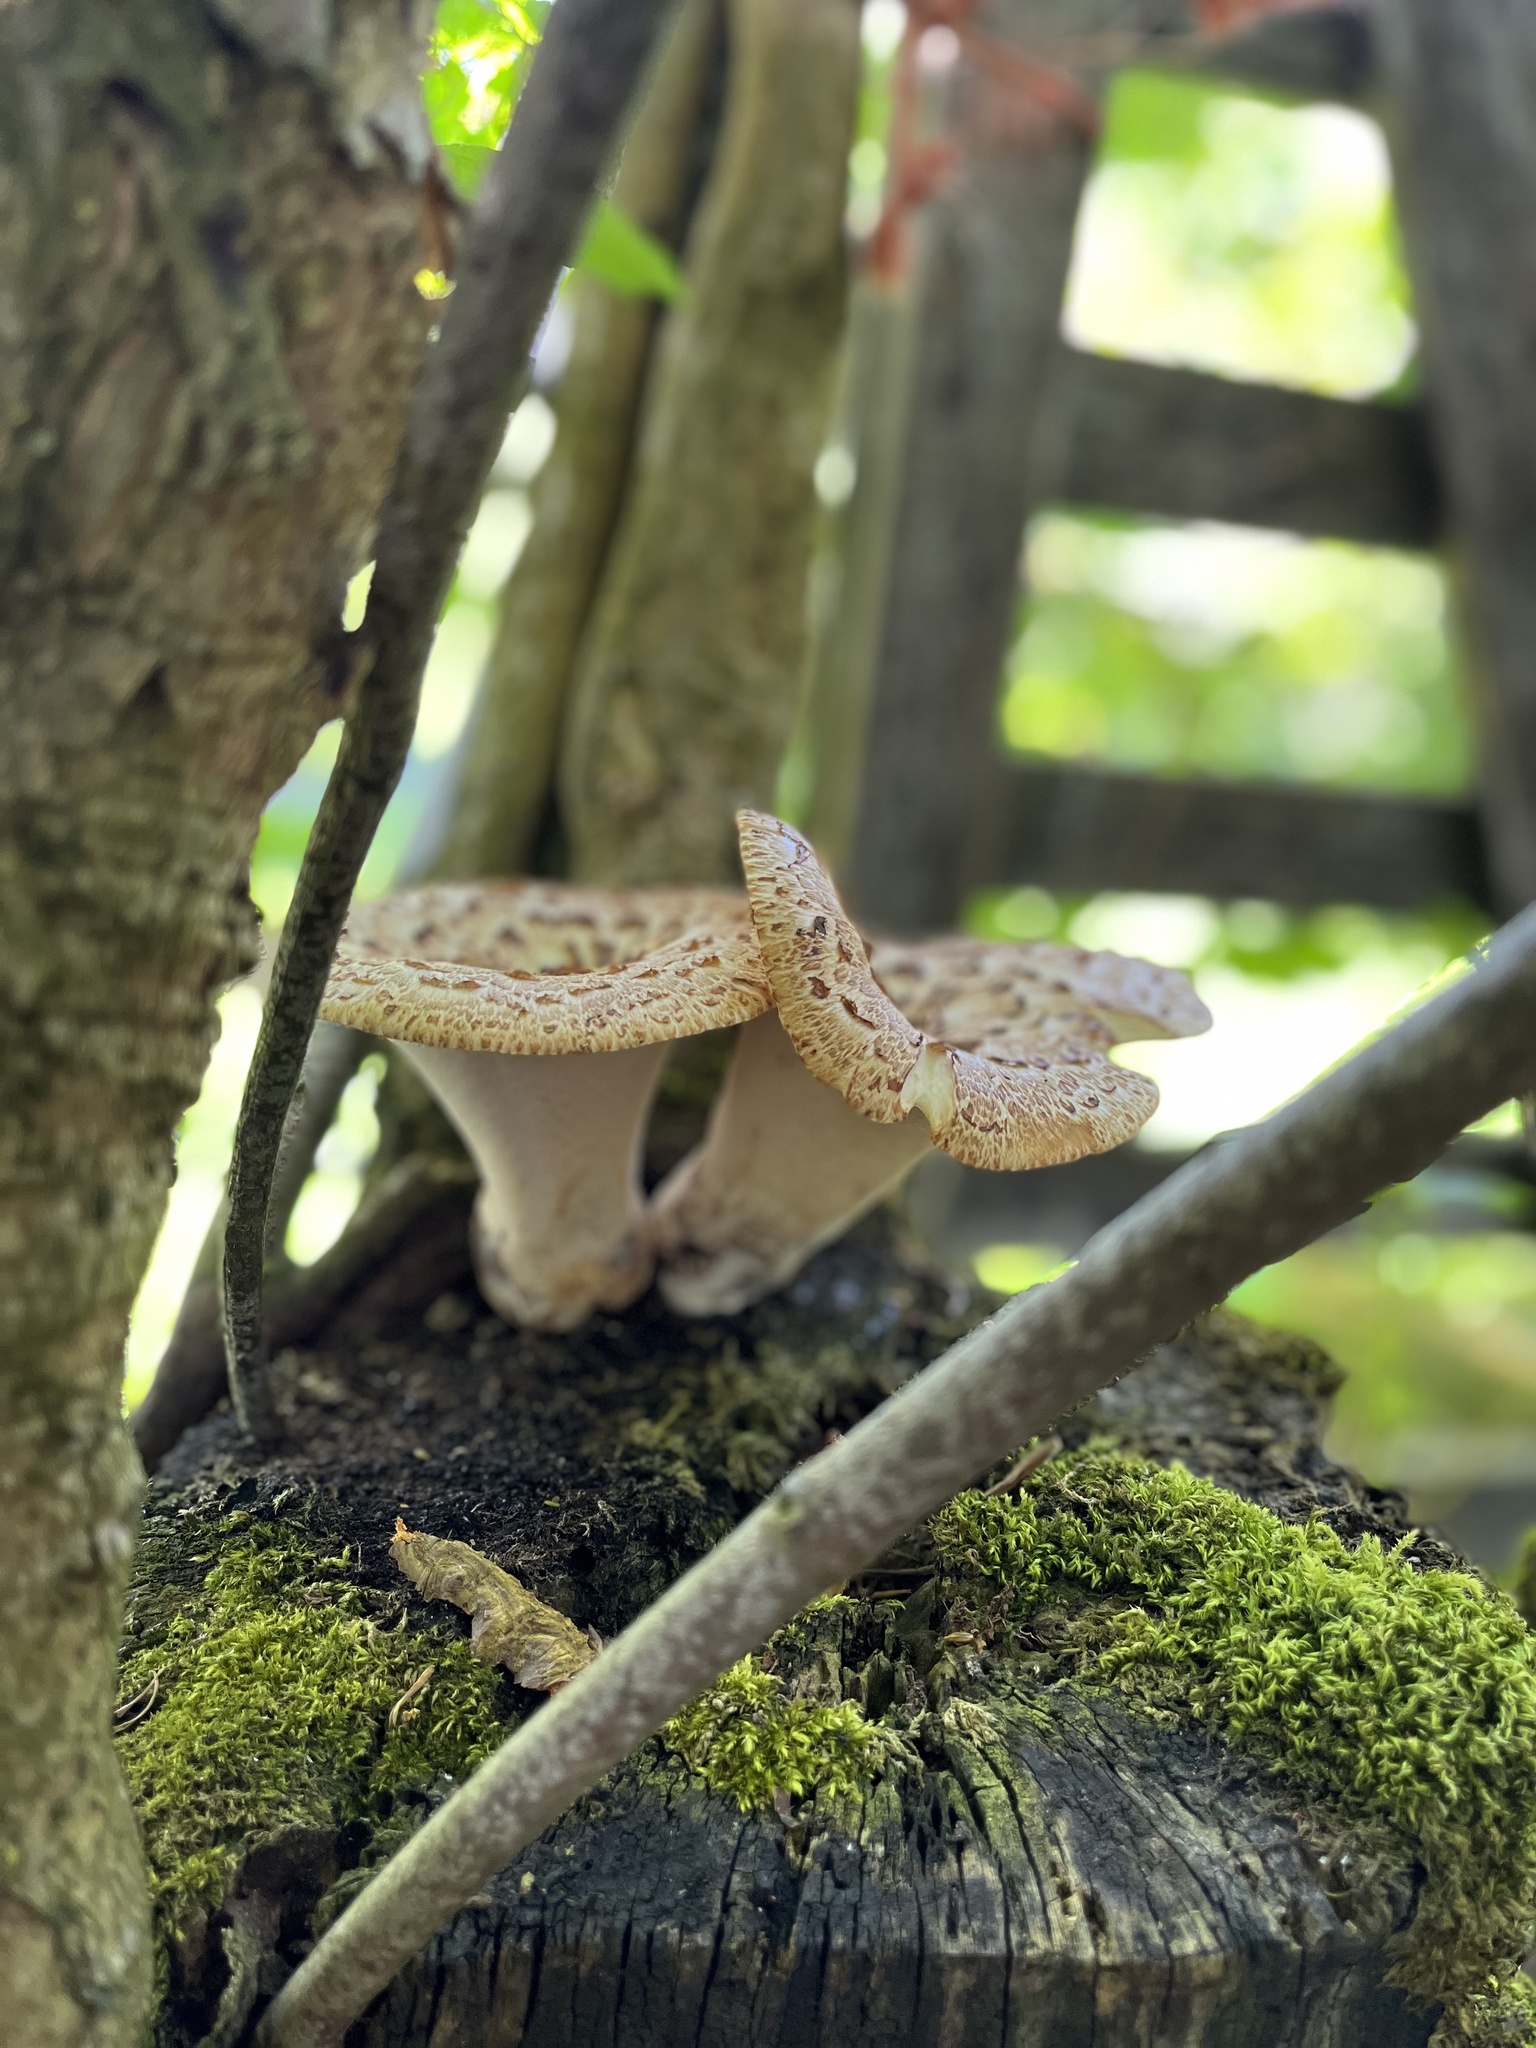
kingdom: Fungi
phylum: Basidiomycota
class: Agaricomycetes
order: Polyporales
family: Polyporaceae
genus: Cerioporus
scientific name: Cerioporus squamosus
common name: Dryad's saddle
